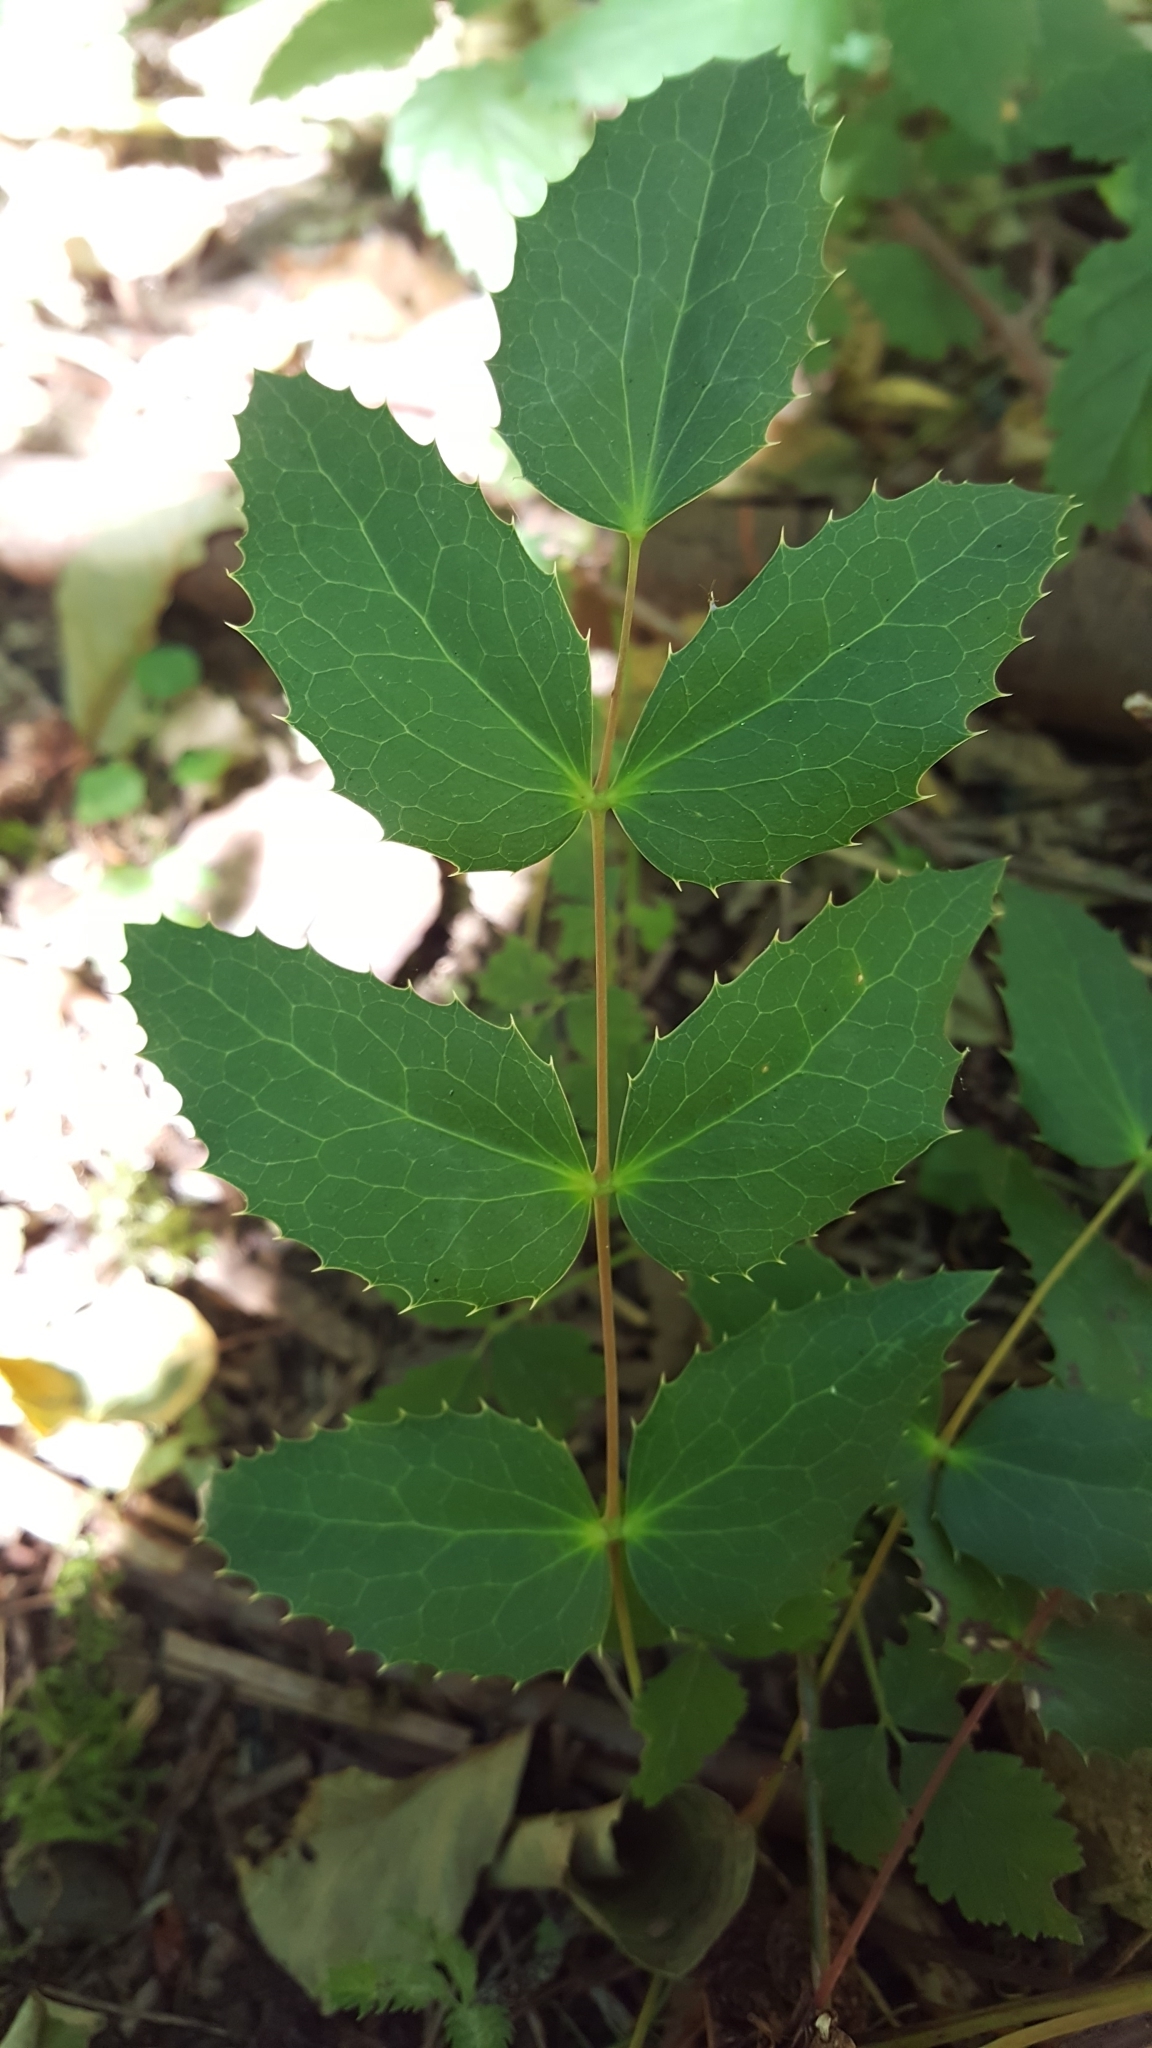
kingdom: Plantae
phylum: Tracheophyta
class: Magnoliopsida
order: Ranunculales
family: Berberidaceae
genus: Mahonia
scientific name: Mahonia nervosa
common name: Cascade oregon-grape
